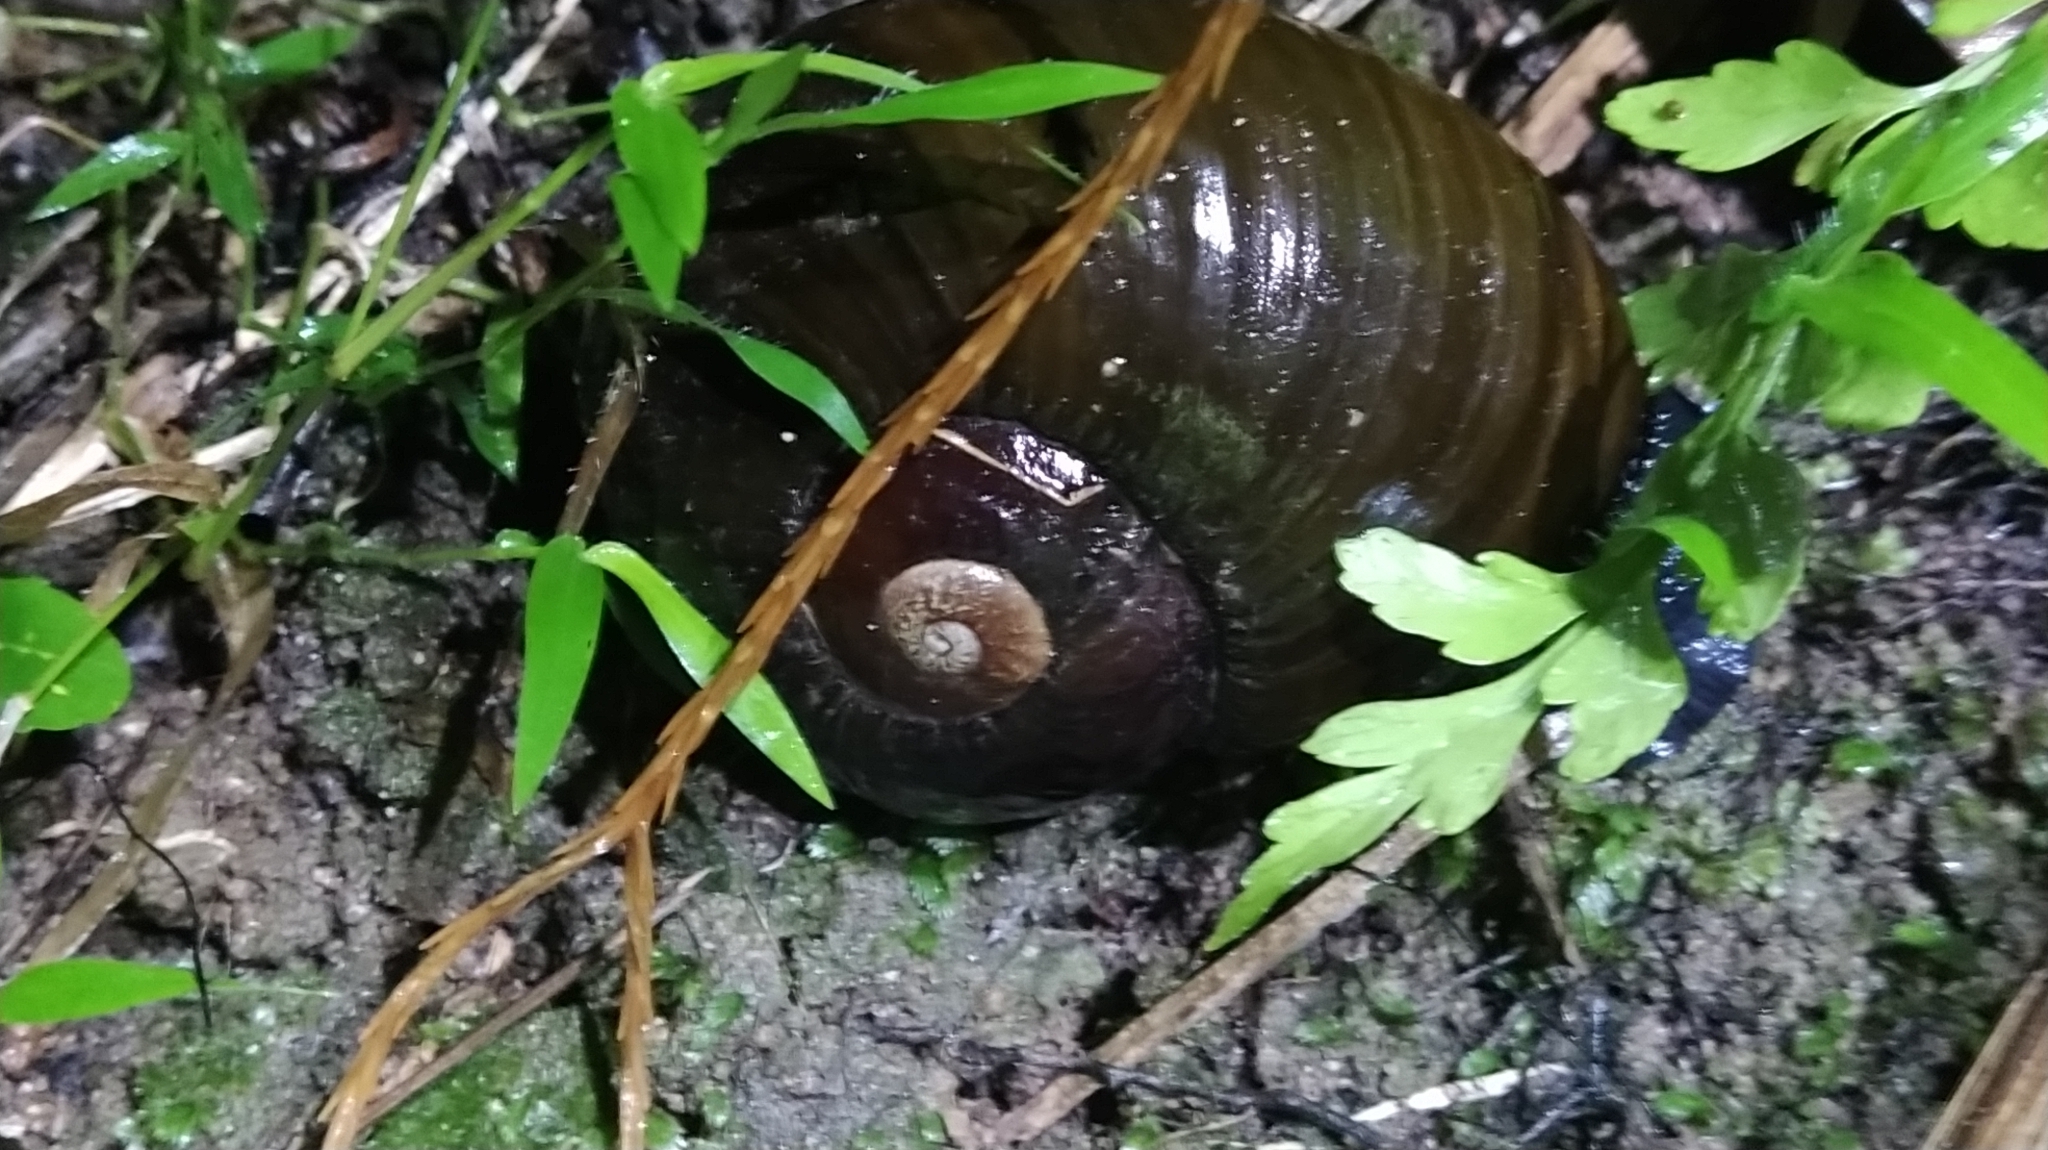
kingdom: Animalia
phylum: Mollusca
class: Gastropoda
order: Stylommatophora
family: Rhytididae
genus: Paryphanta
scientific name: Paryphanta busbyi
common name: Kauri snail
